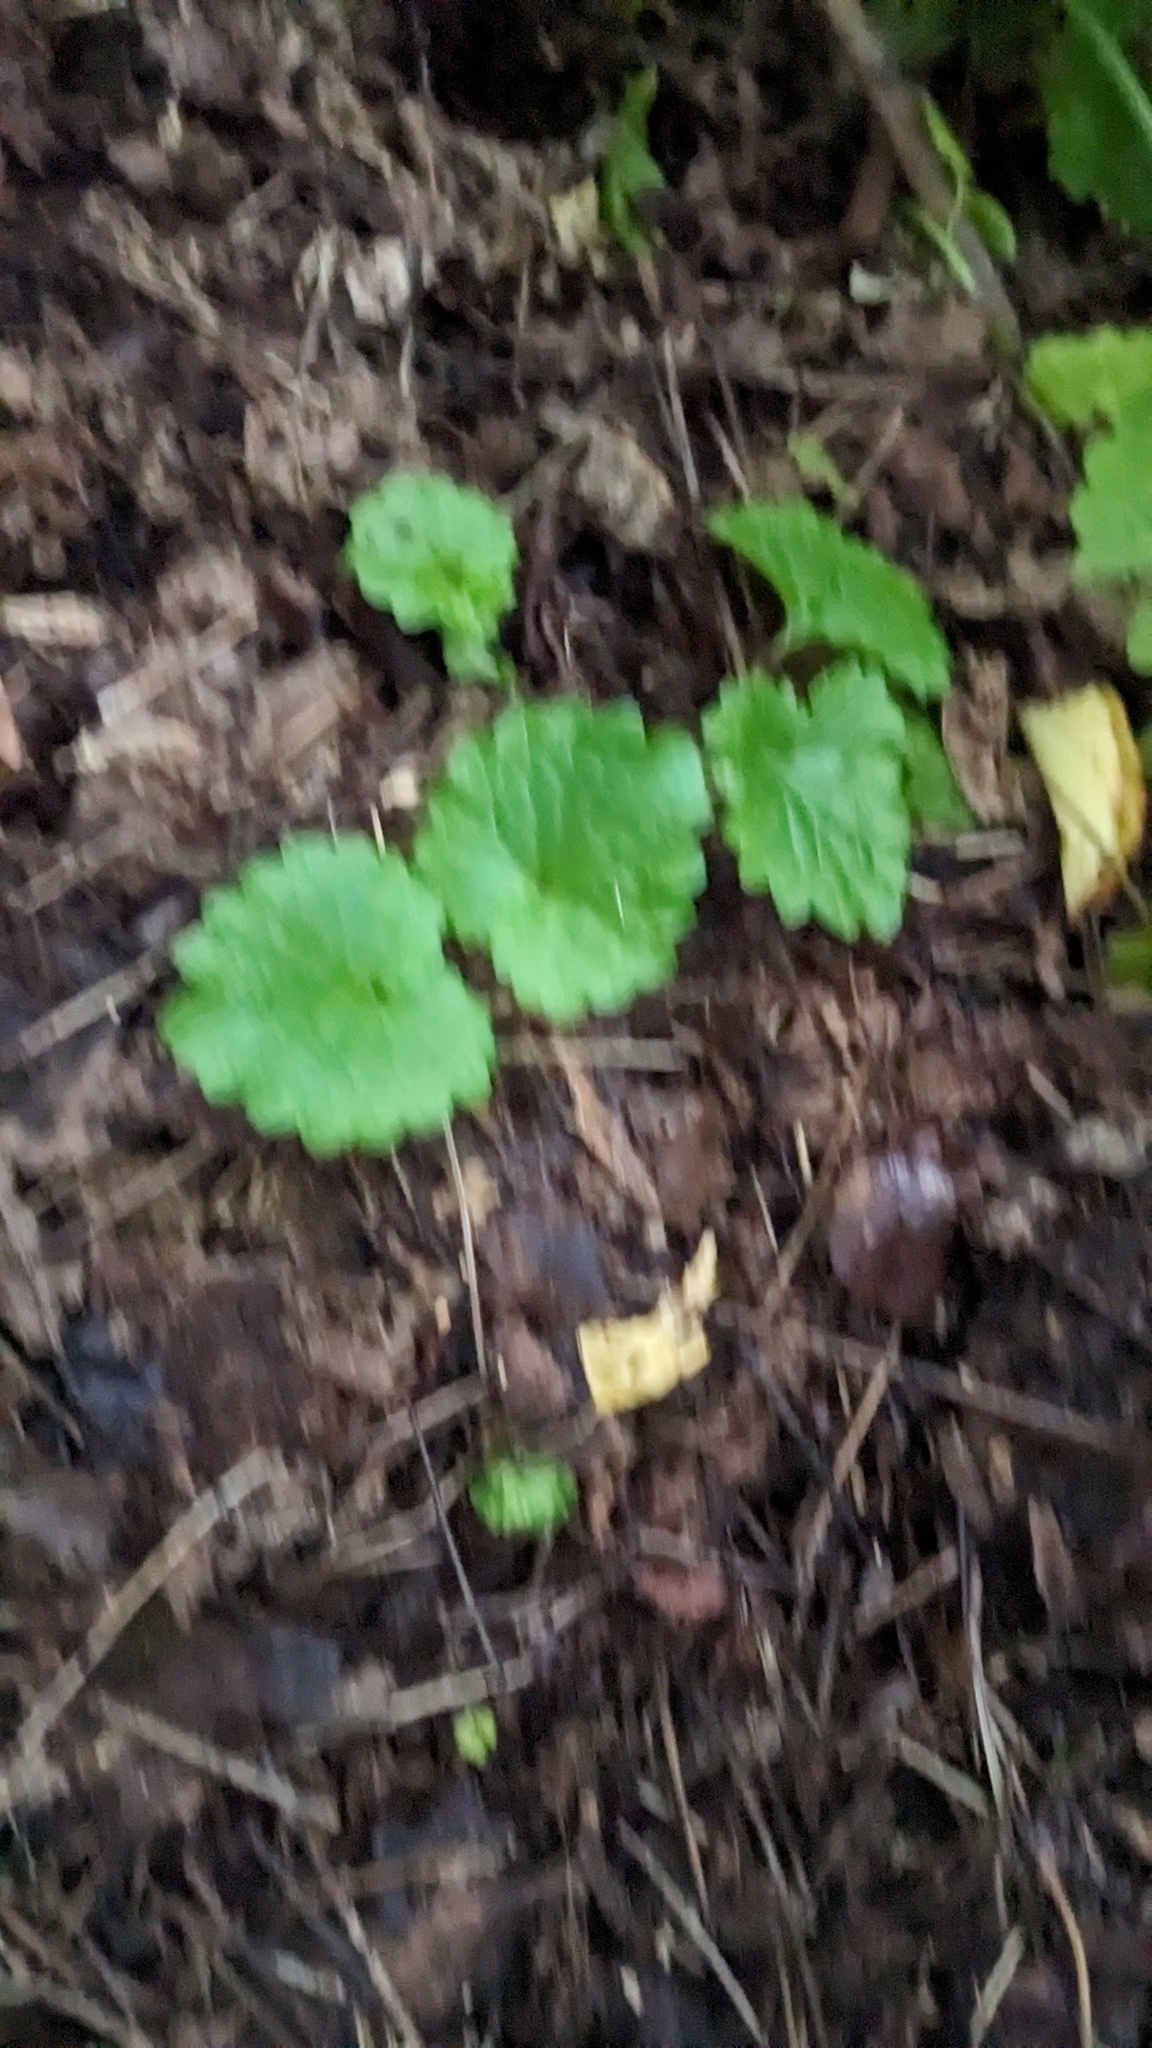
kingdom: Plantae
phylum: Tracheophyta
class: Magnoliopsida
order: Lamiales
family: Lamiaceae
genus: Glechoma
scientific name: Glechoma hederacea
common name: Ground ivy
